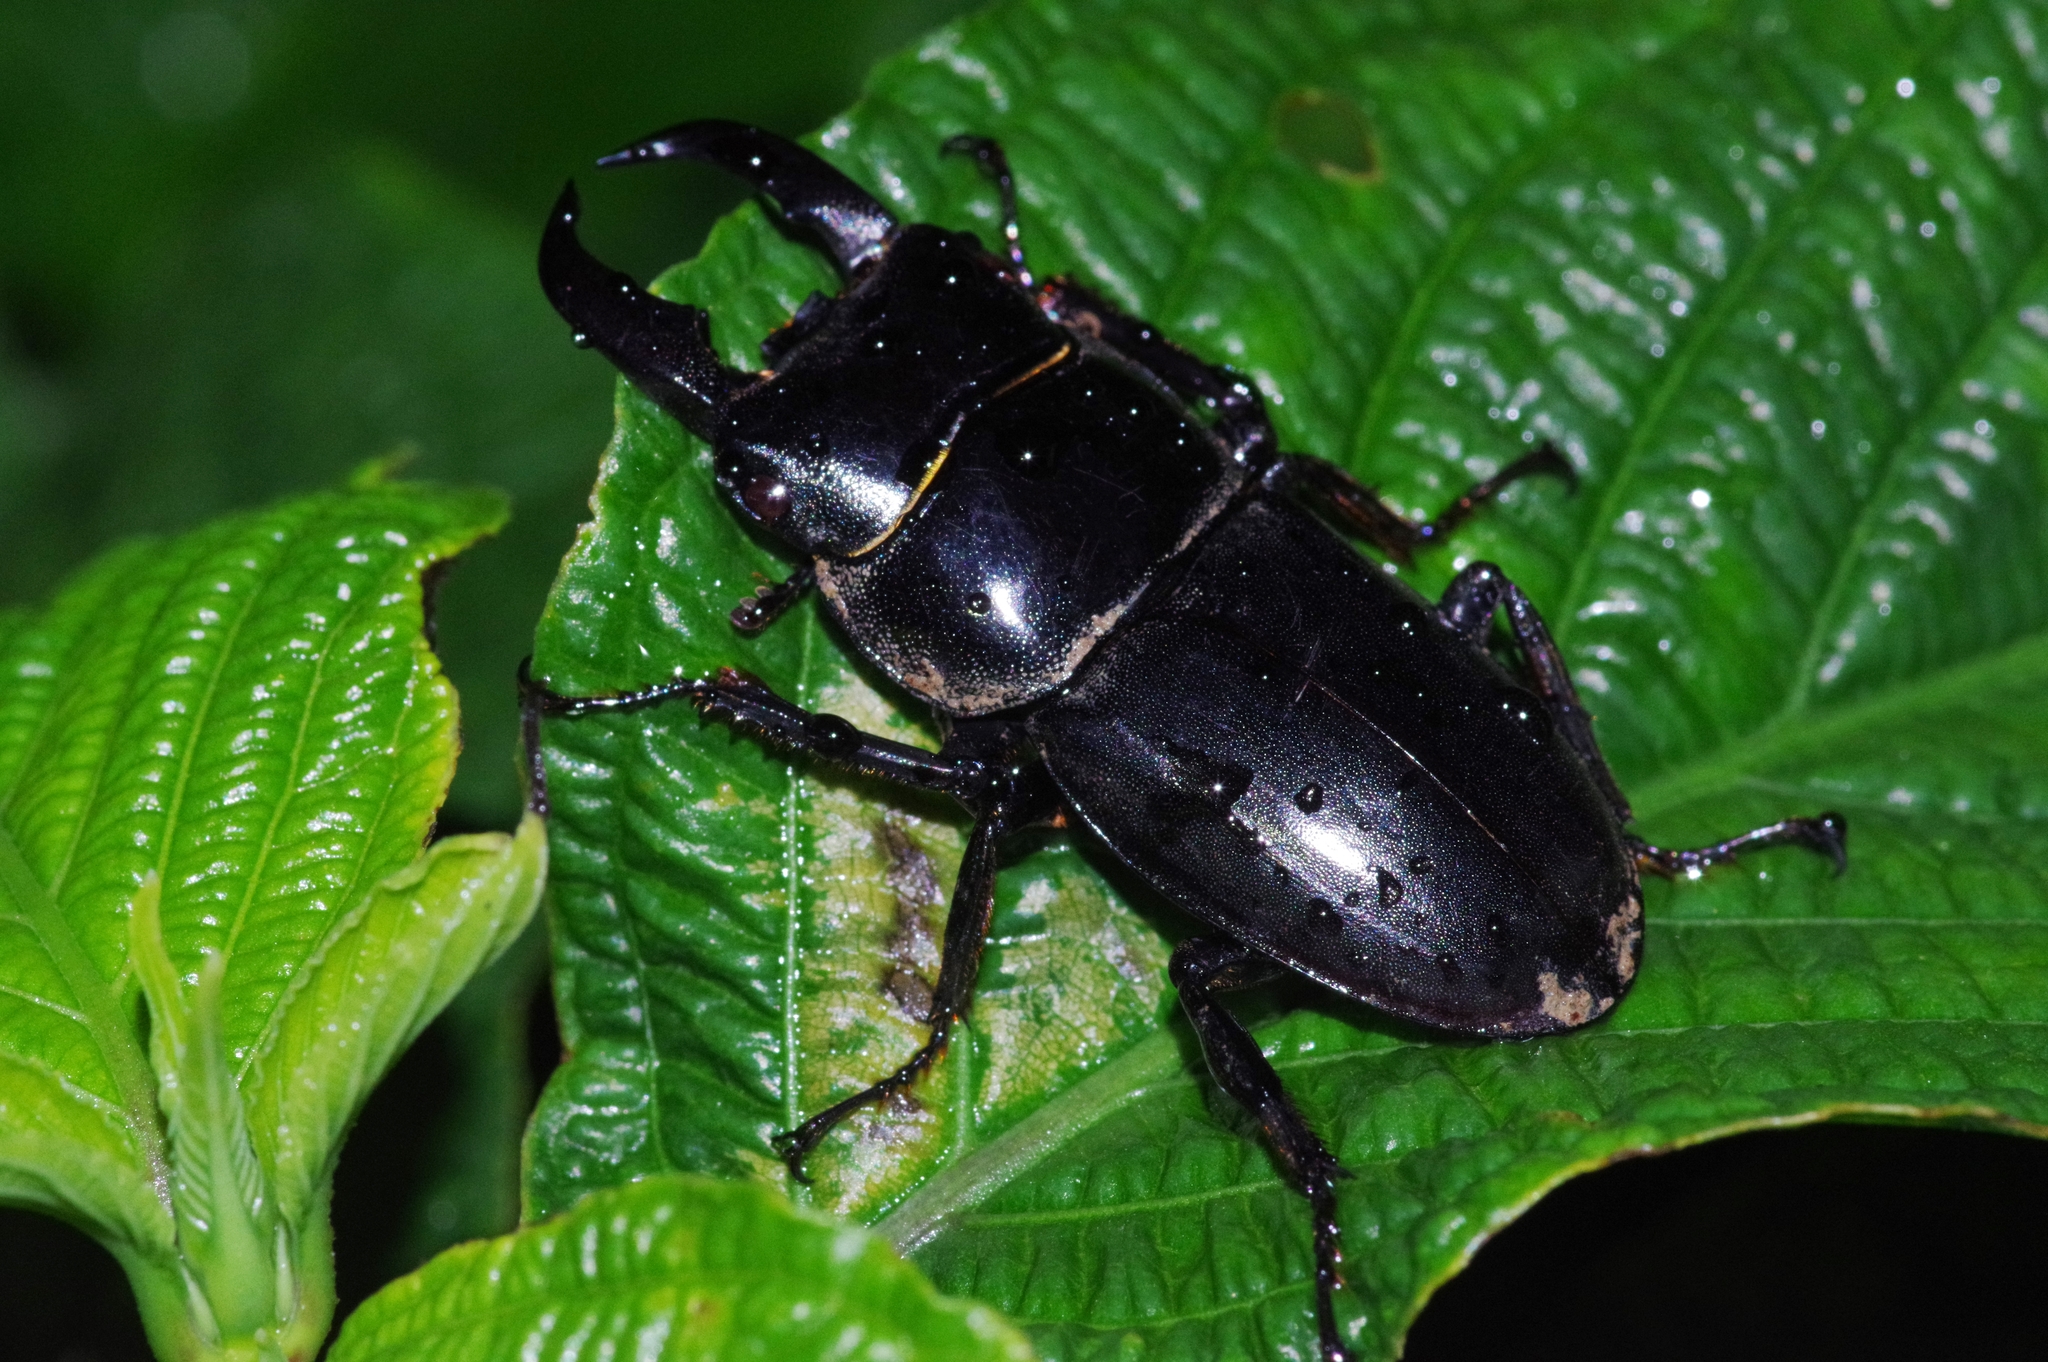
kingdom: Animalia
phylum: Arthropoda
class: Insecta
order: Coleoptera
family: Lucanidae
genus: Serrognathus
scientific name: Serrognathus titanus
